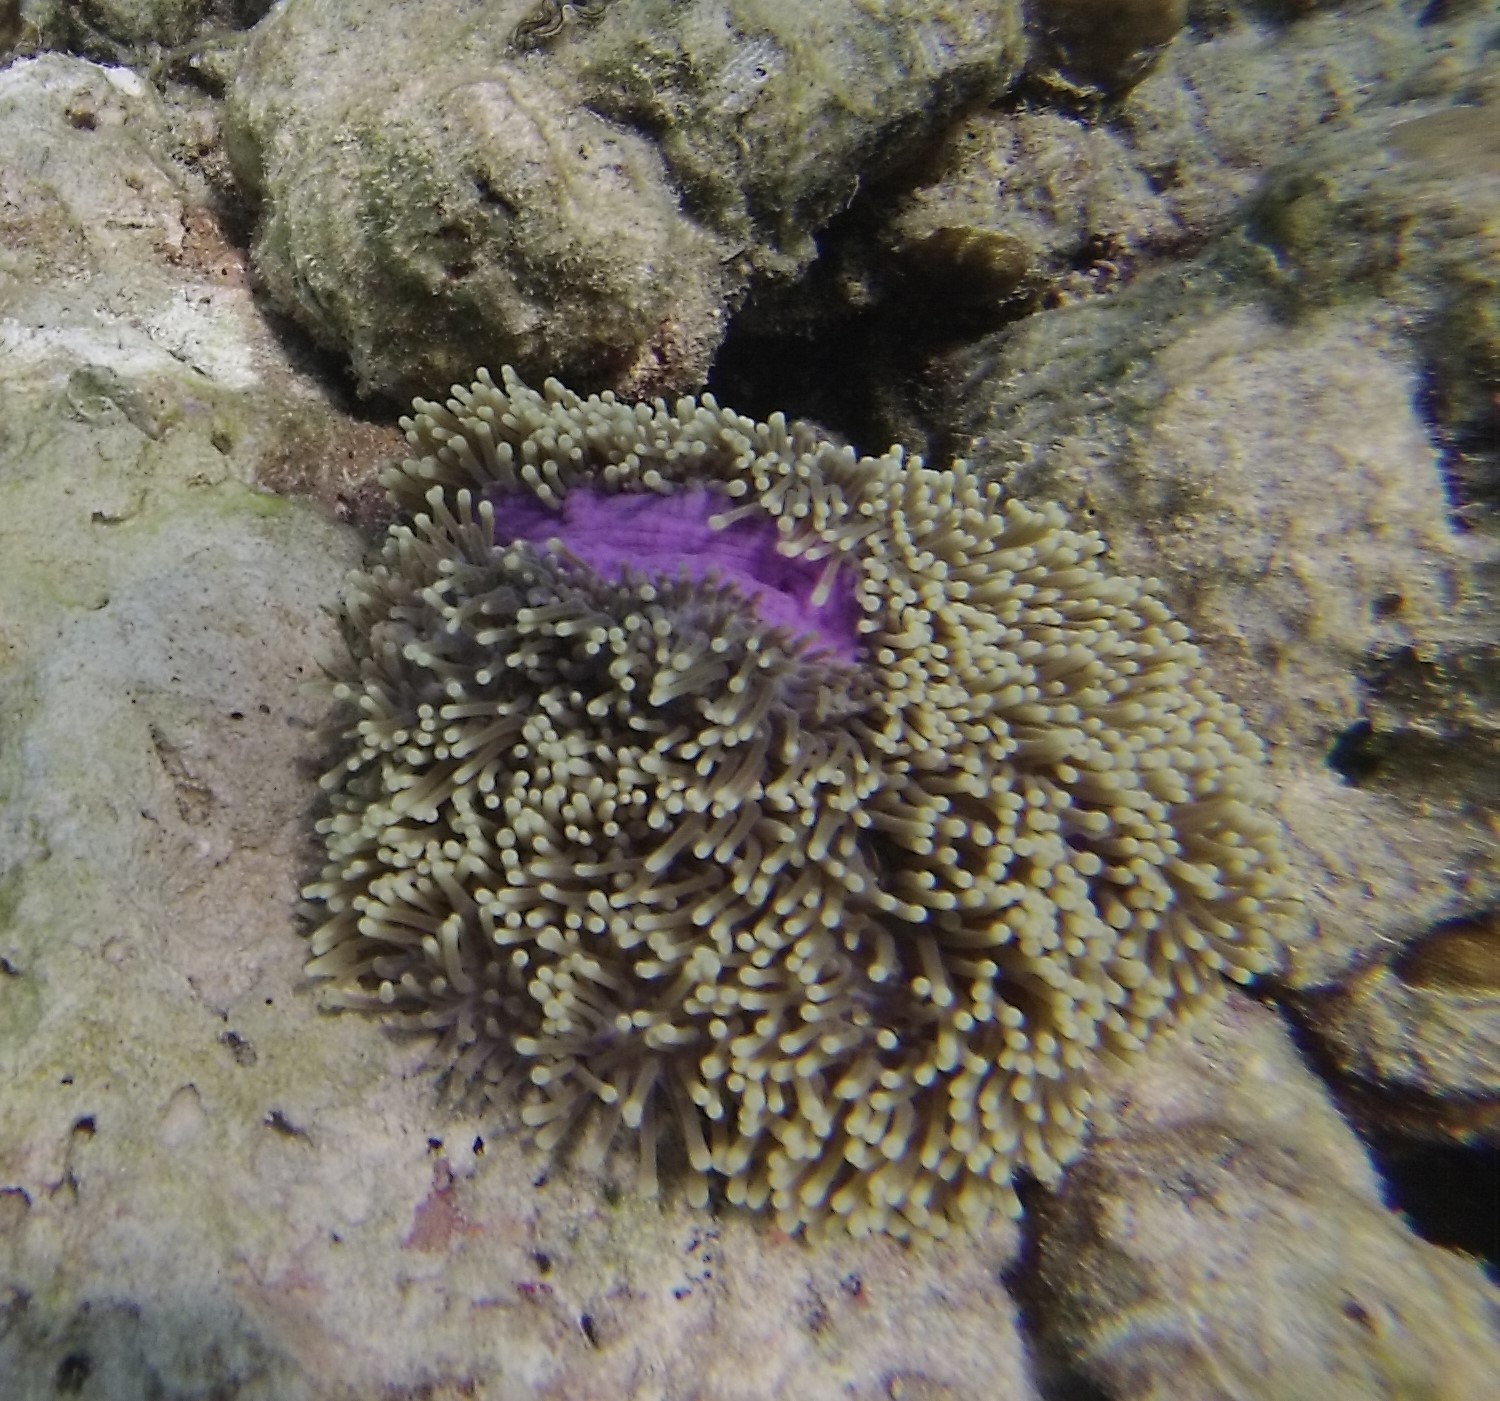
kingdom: Animalia
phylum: Cnidaria
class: Anthozoa
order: Actiniaria
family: Stichodactylidae
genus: Radianthus
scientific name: Radianthus magnifica
